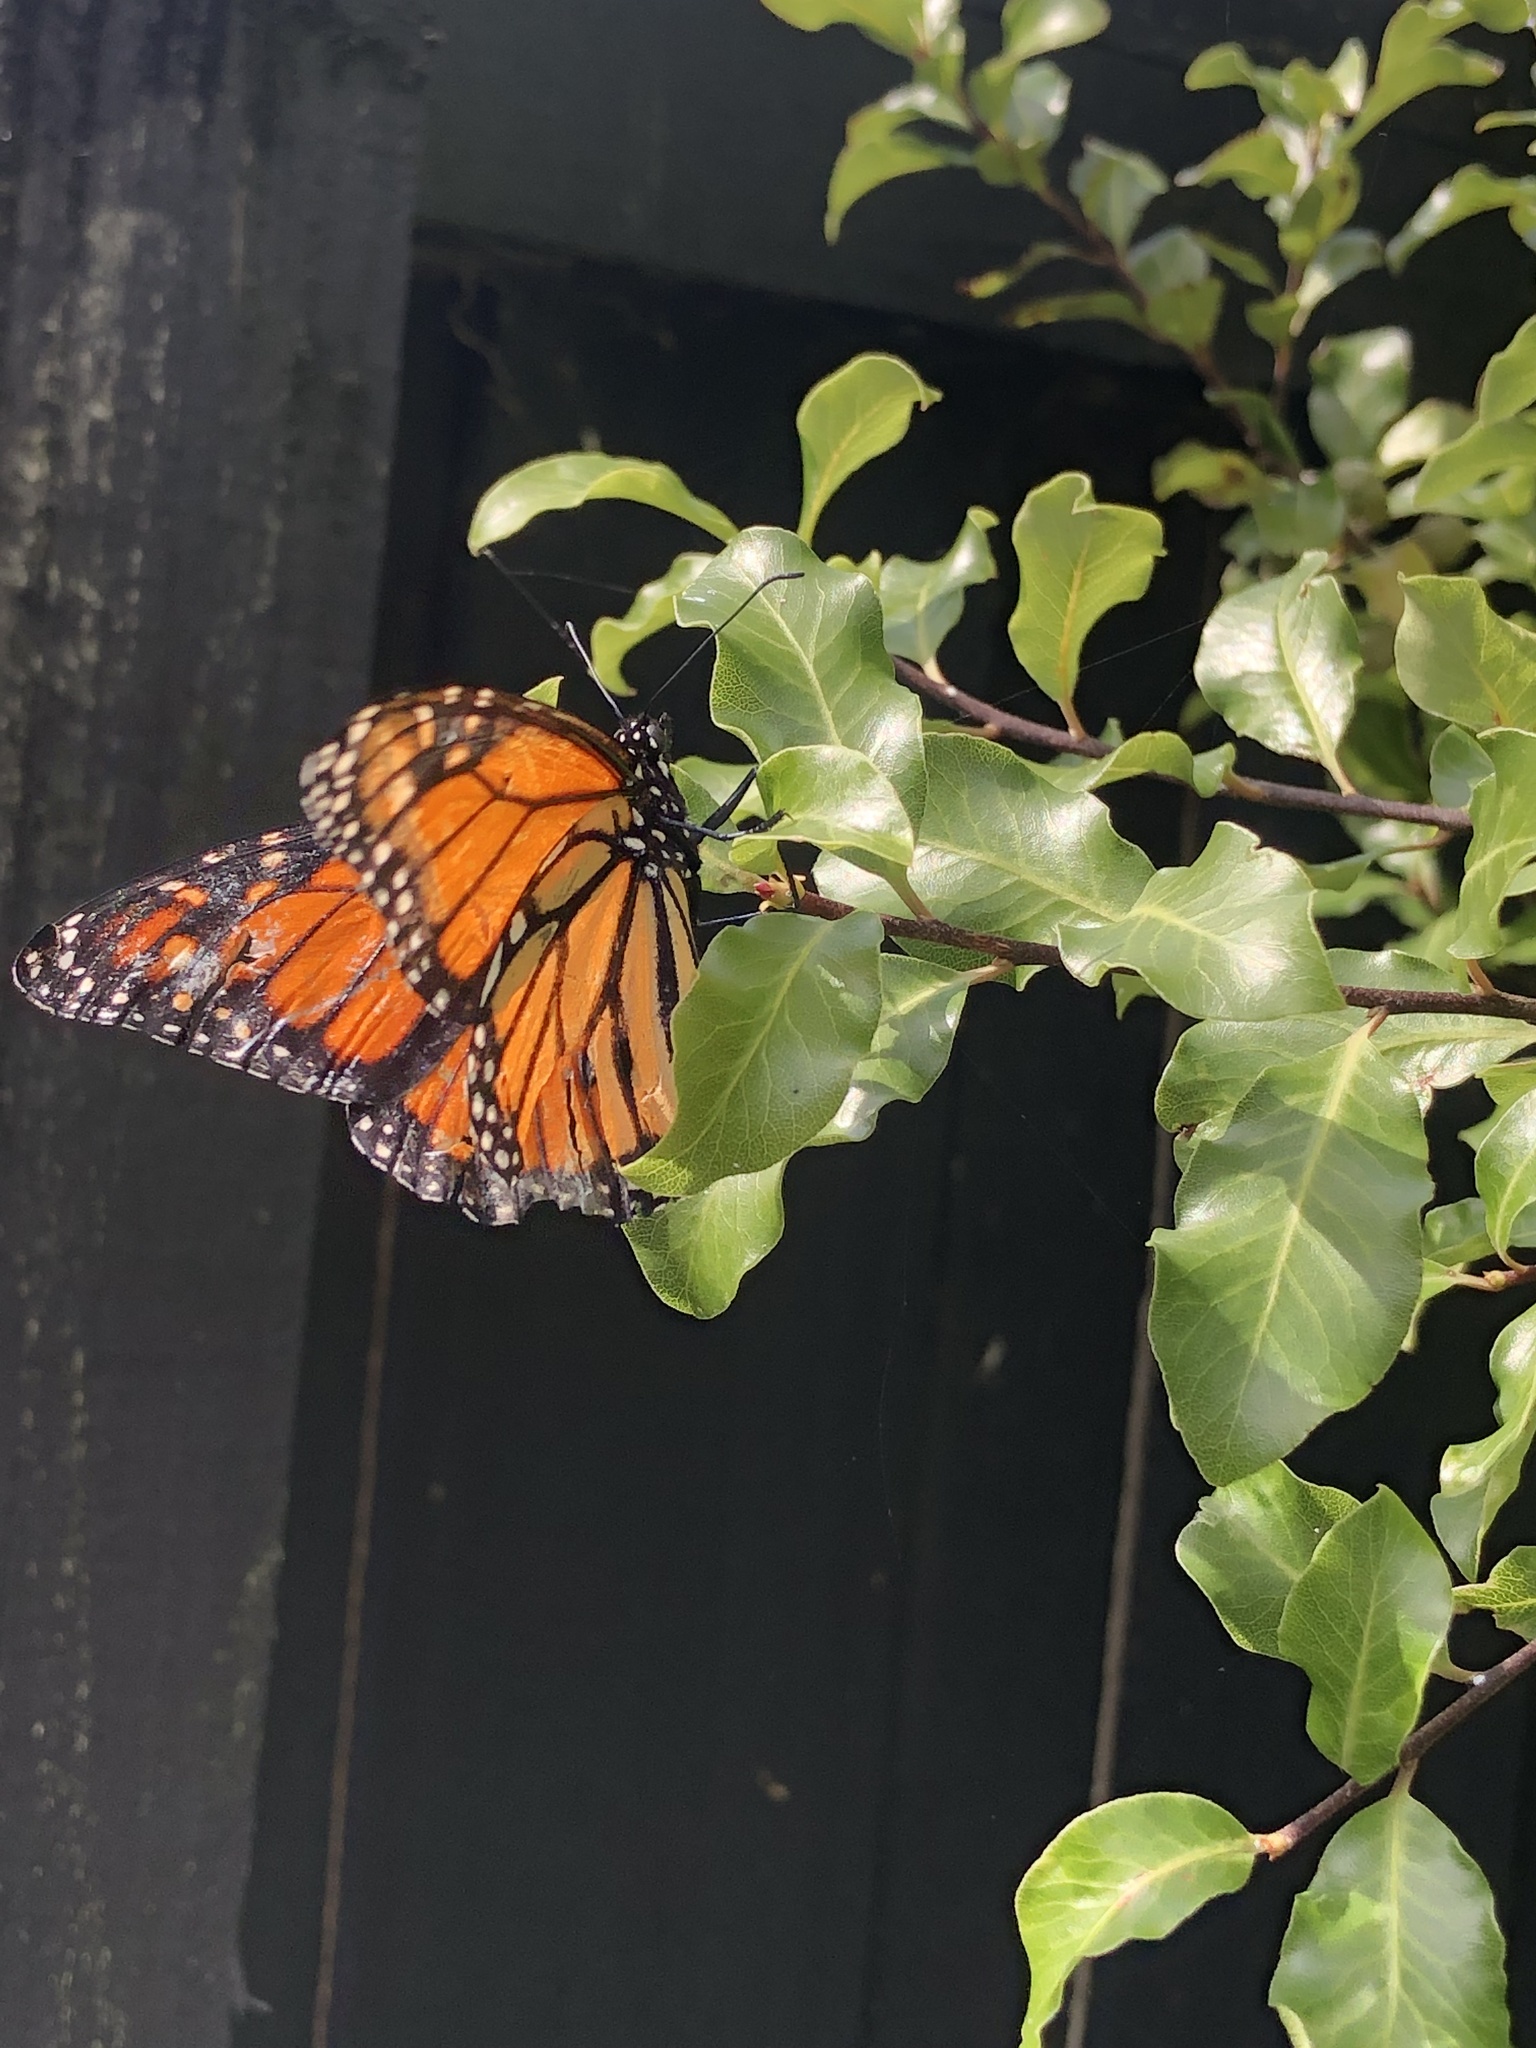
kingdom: Animalia
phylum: Arthropoda
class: Insecta
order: Lepidoptera
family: Nymphalidae
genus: Danaus
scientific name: Danaus plexippus
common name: Monarch
